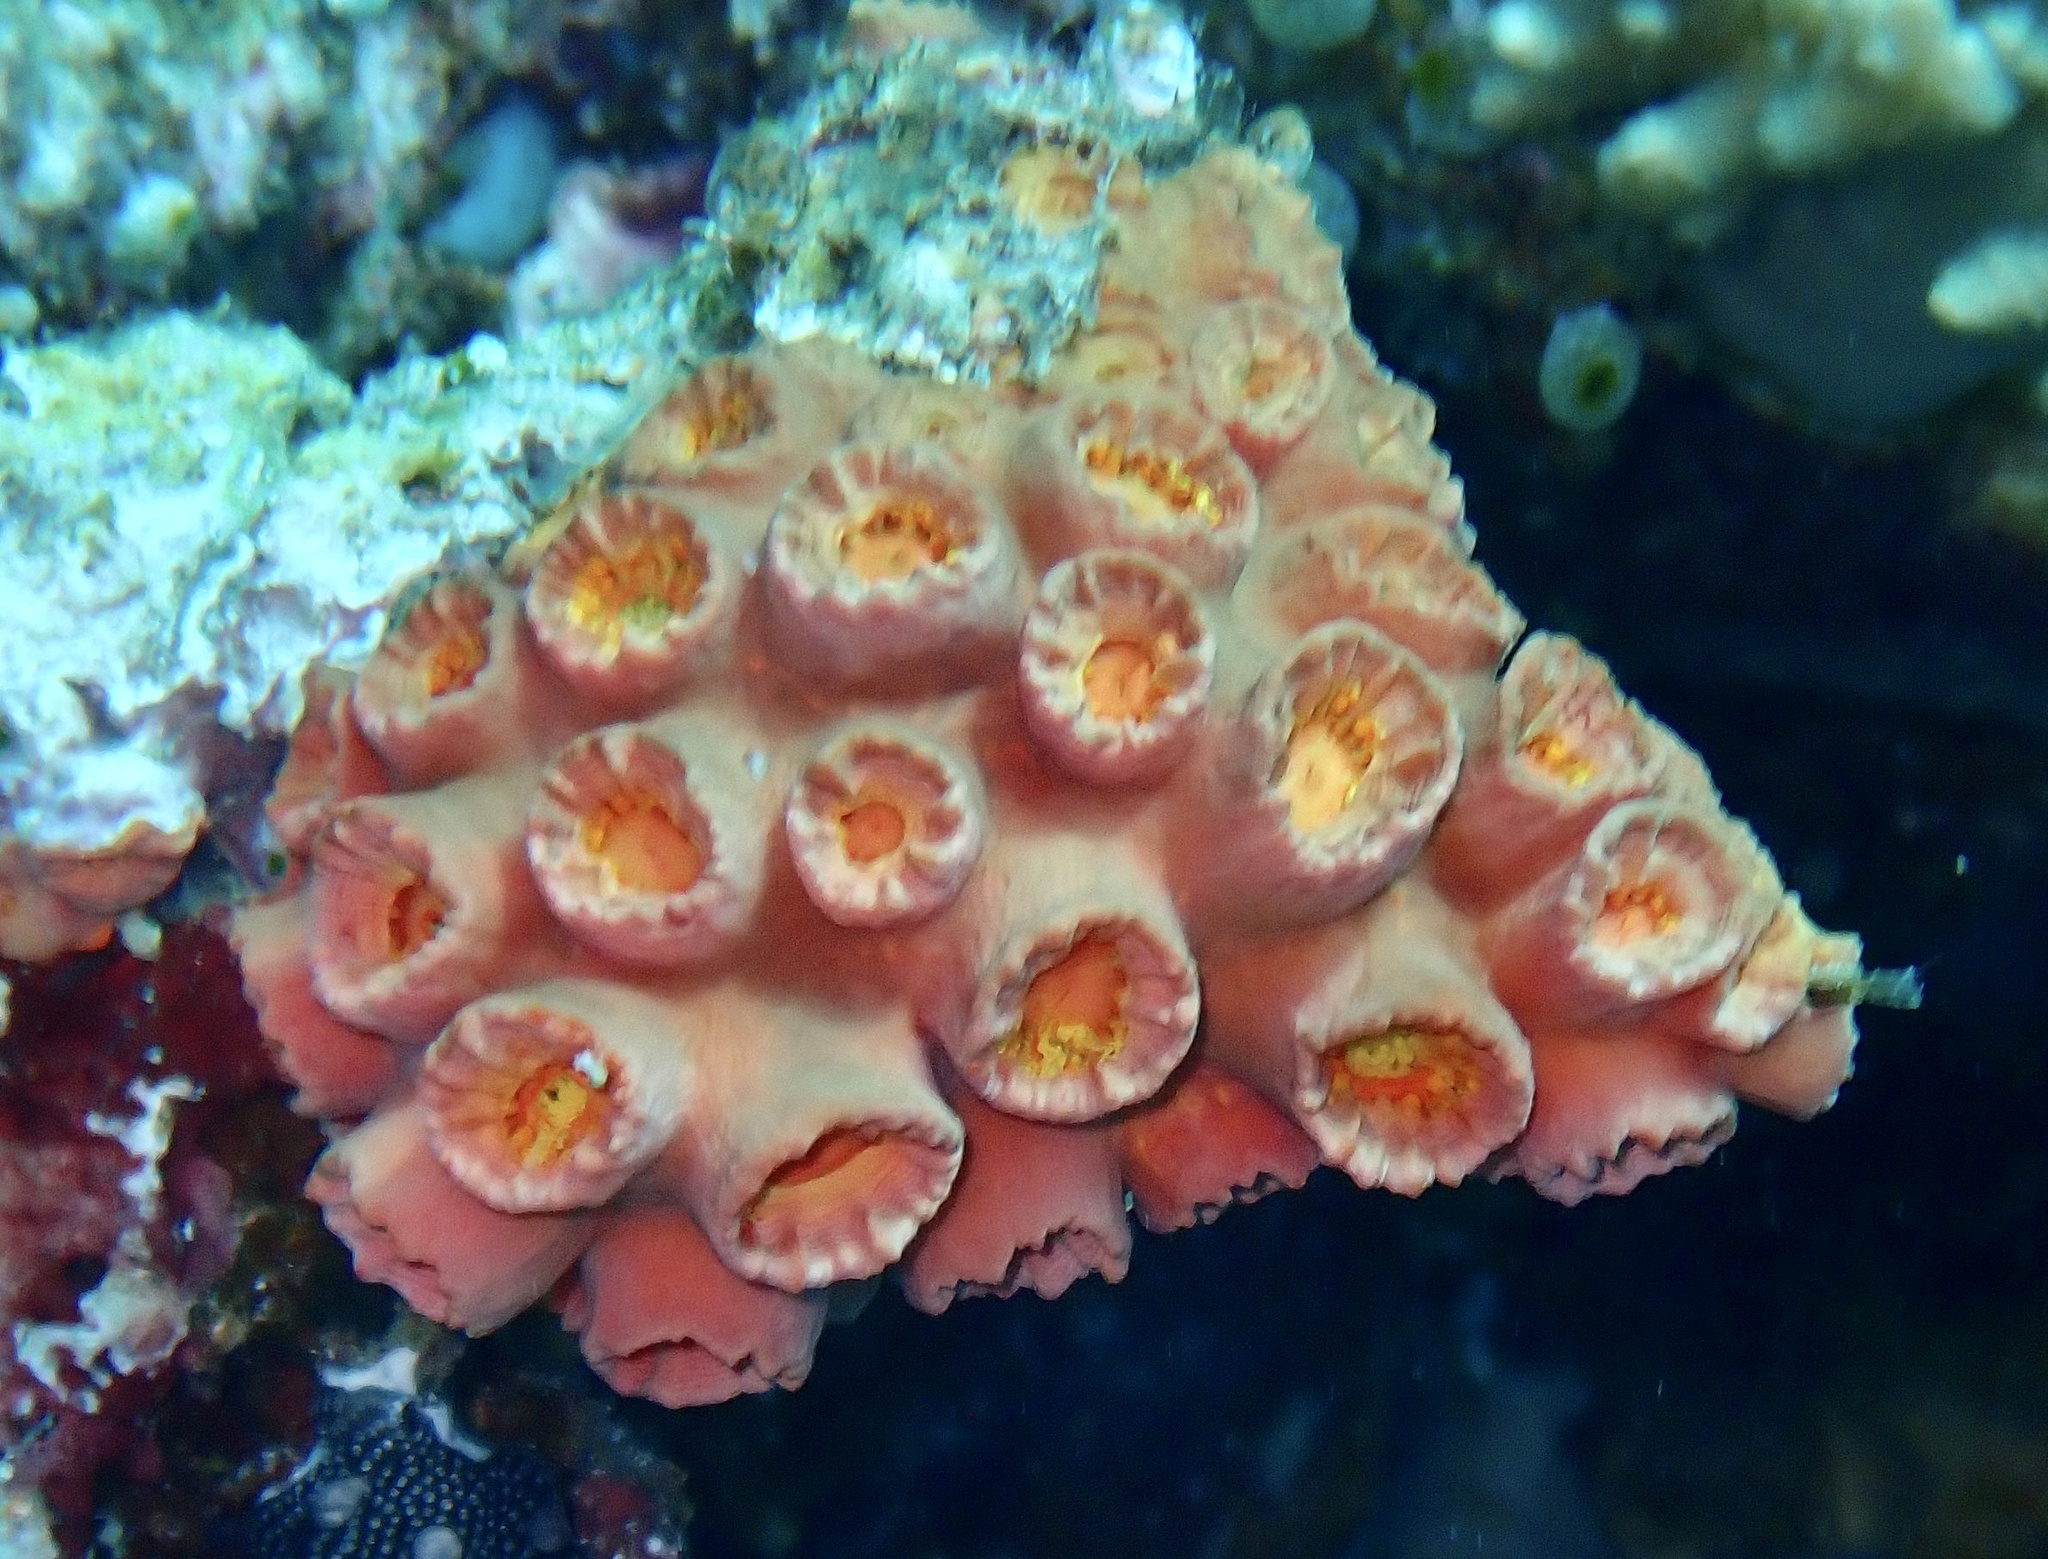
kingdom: Animalia
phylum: Cnidaria
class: Anthozoa
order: Scleractinia
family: Dendrophylliidae
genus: Tubastraea
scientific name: Tubastraea coccinea
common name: Orange cup coral
